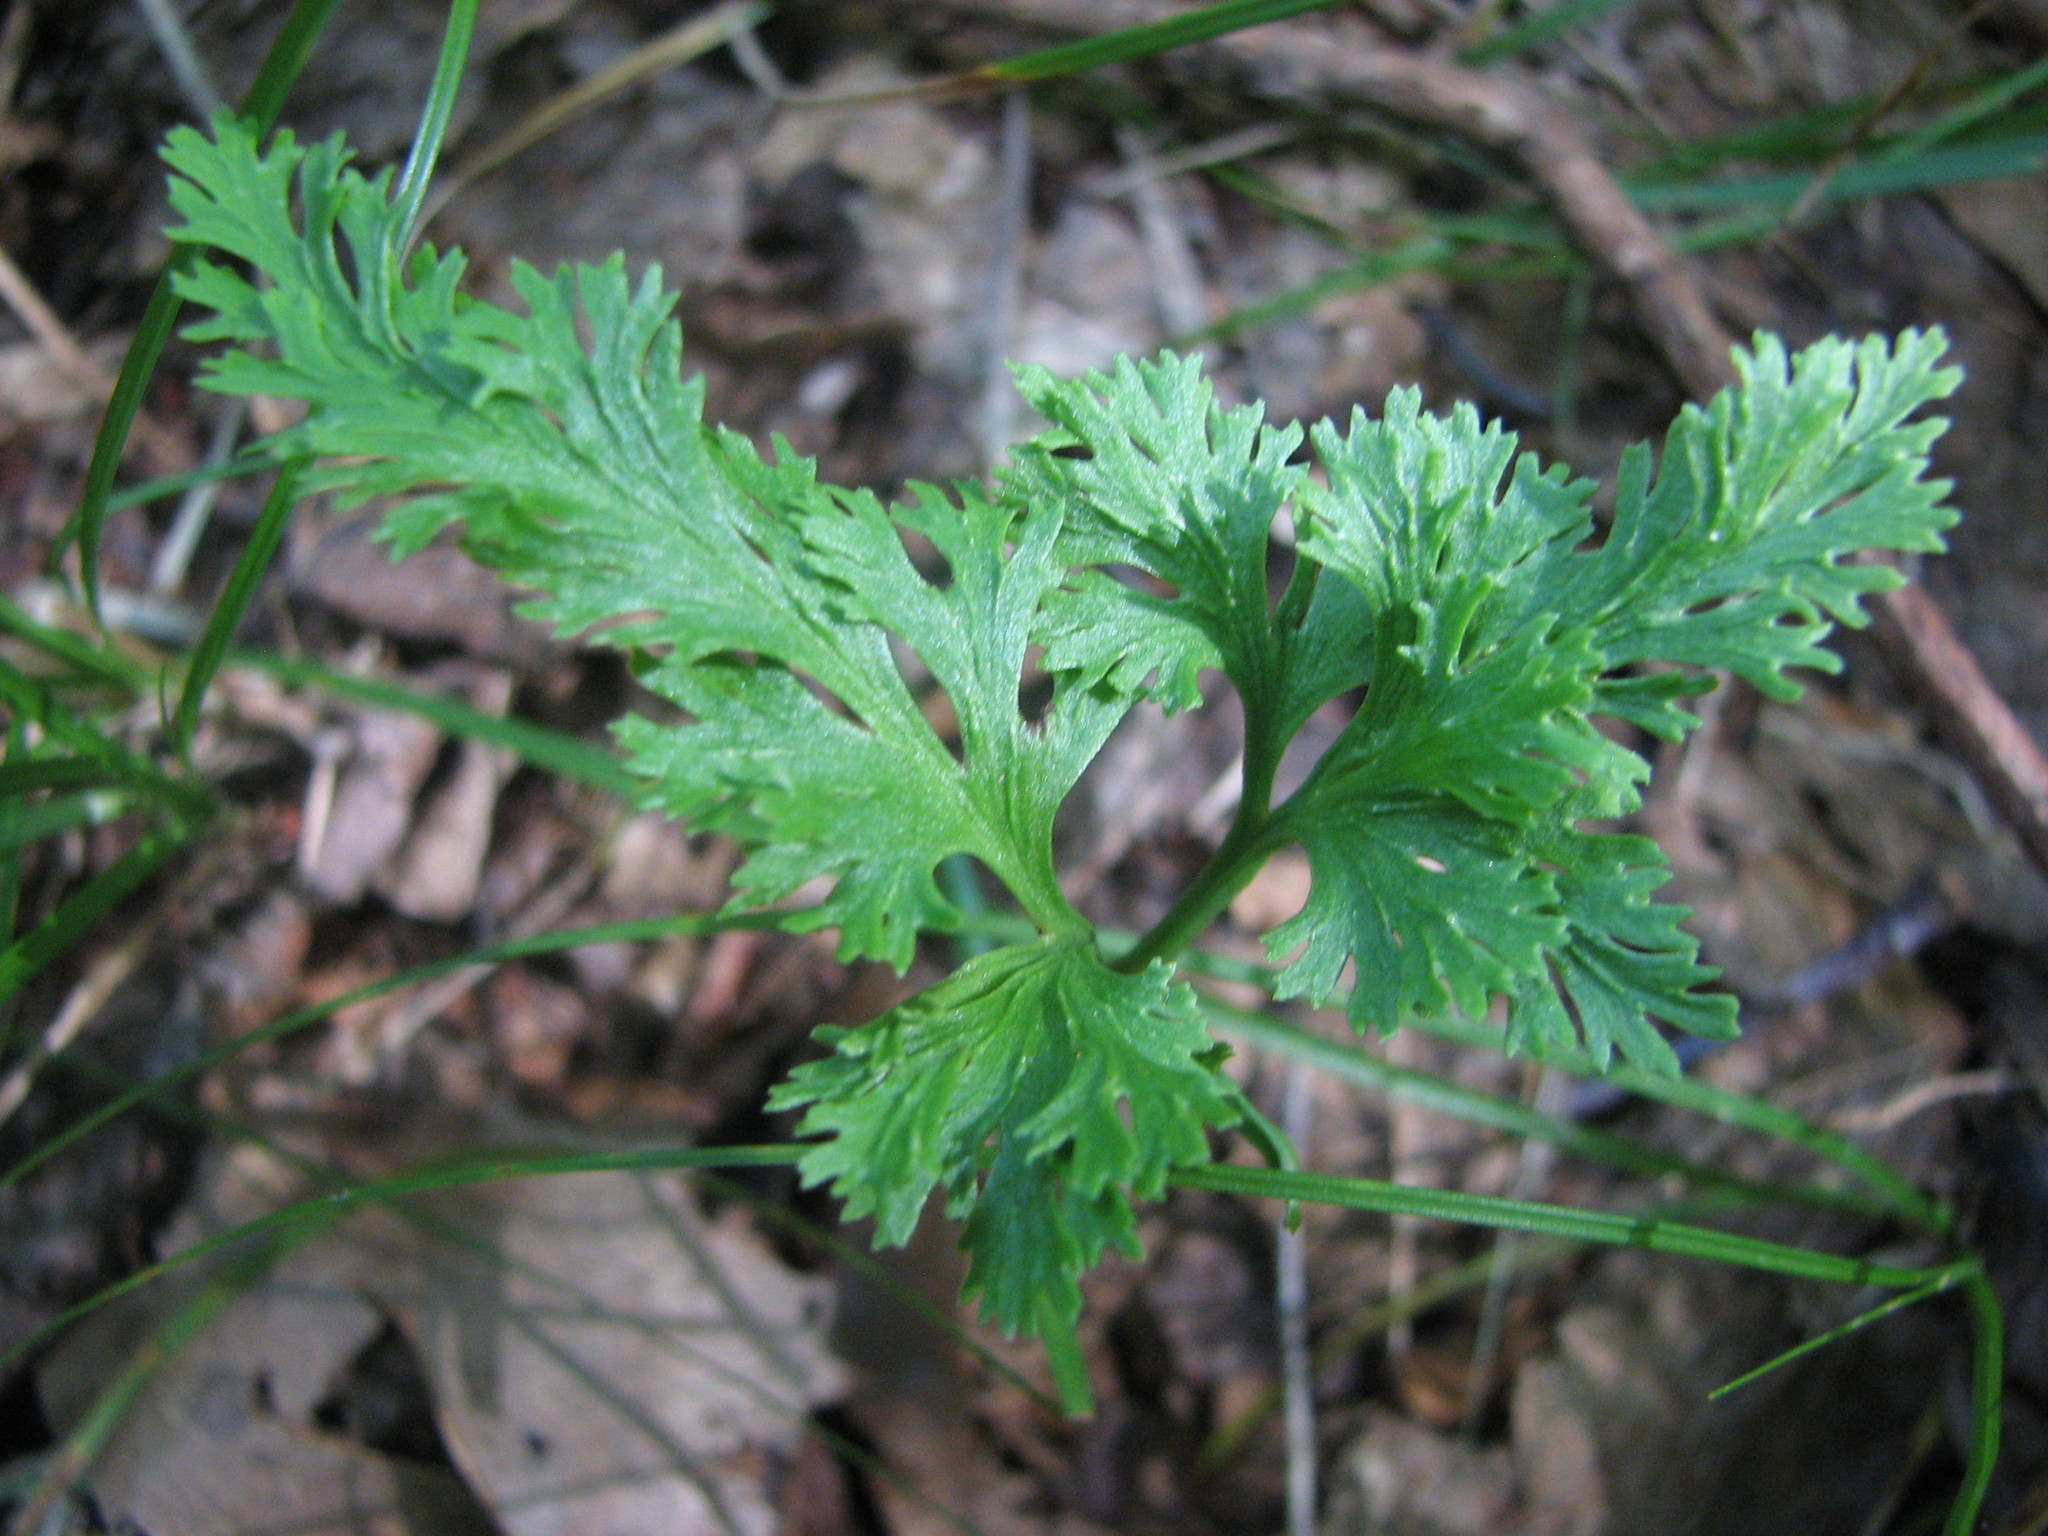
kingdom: Plantae
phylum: Tracheophyta
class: Polypodiopsida
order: Ophioglossales
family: Ophioglossaceae
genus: Sceptridium
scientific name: Sceptridium dissectum
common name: Cut-leaved grapefern
